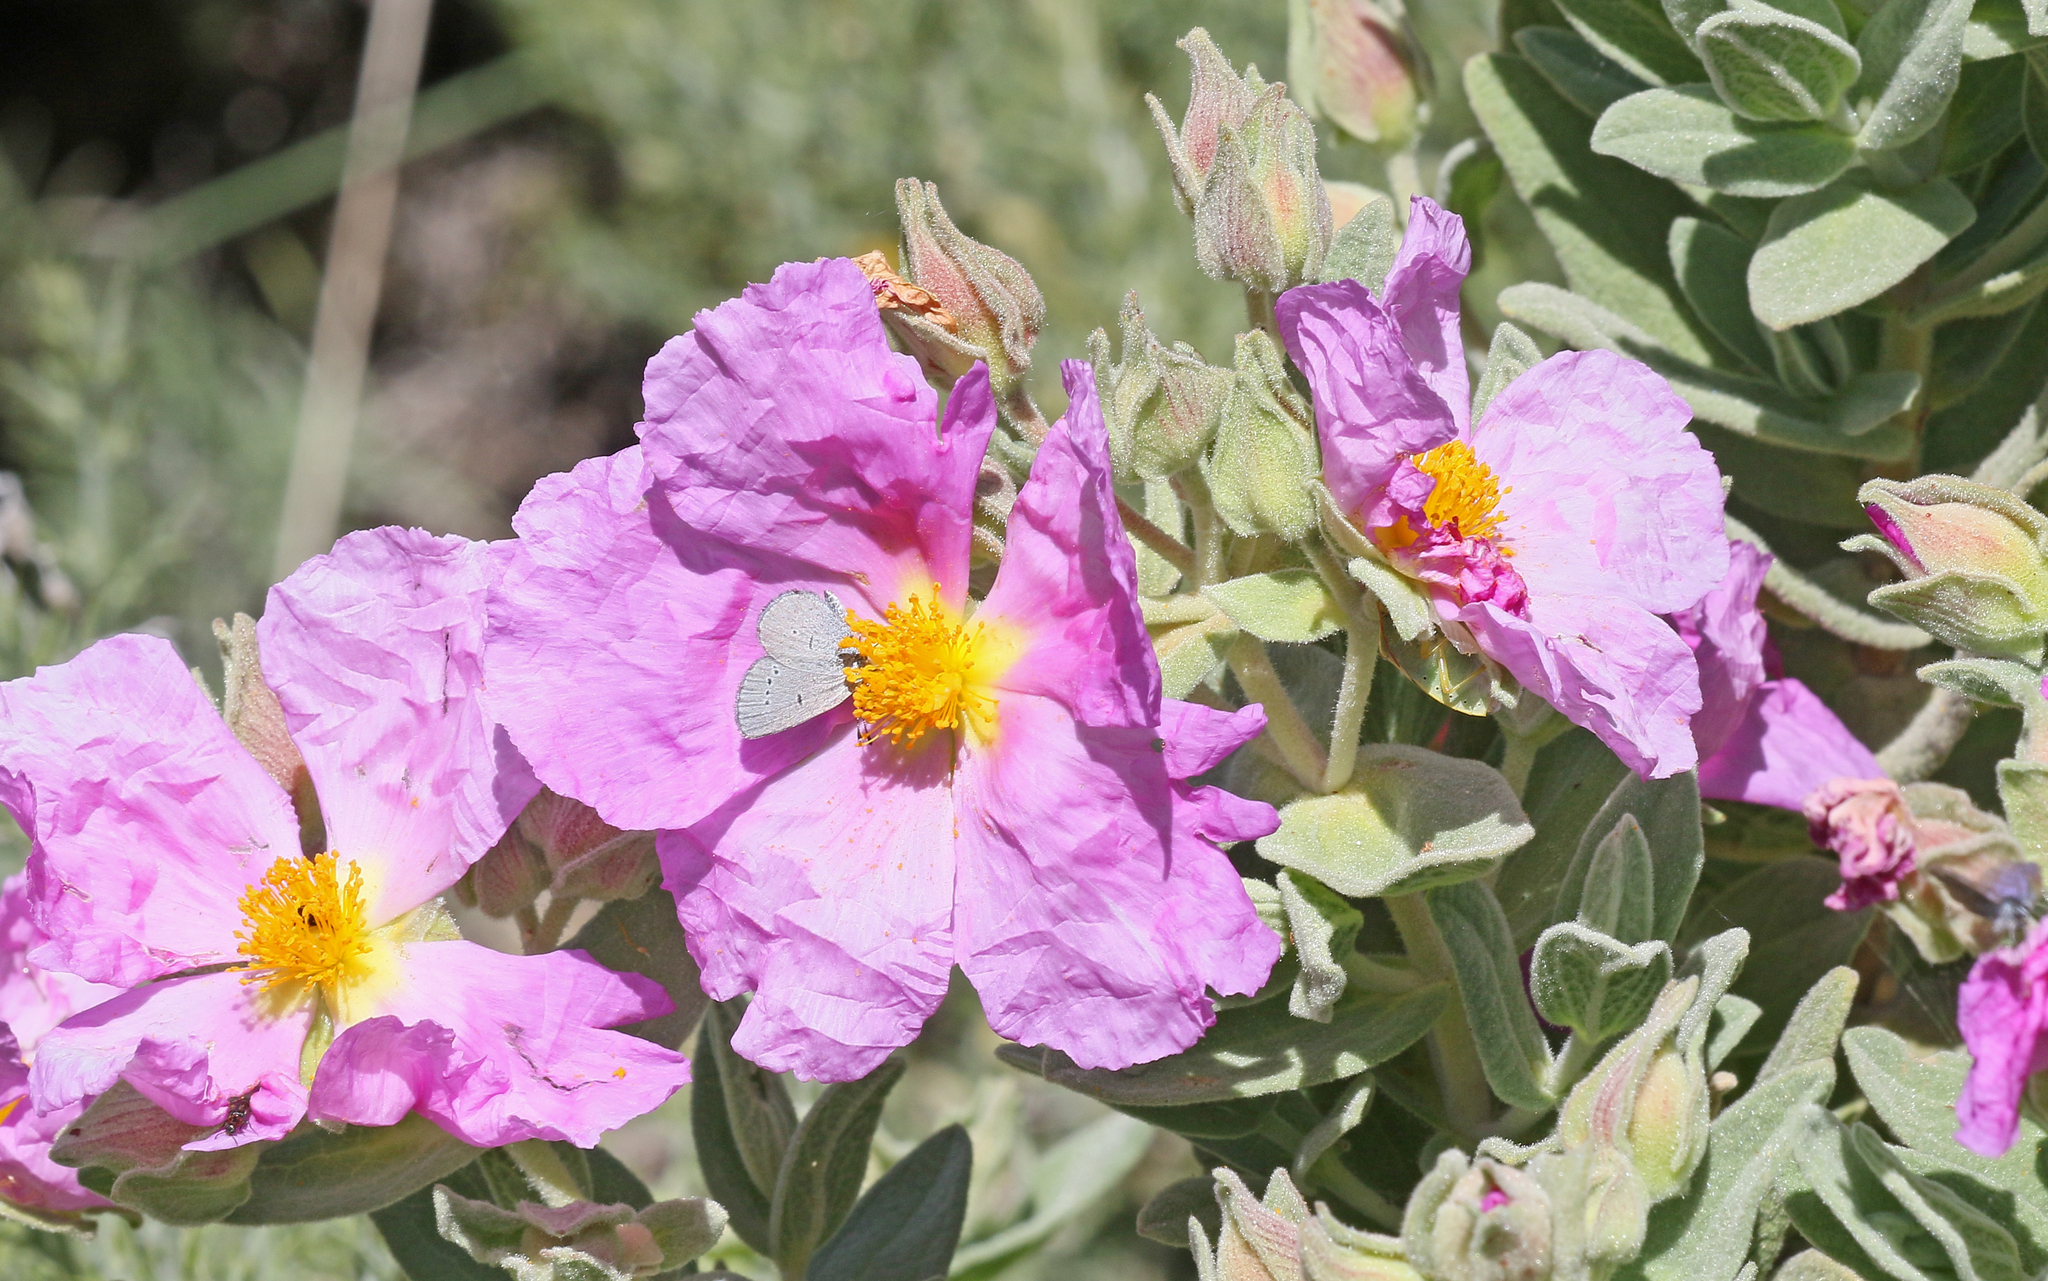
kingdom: Animalia
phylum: Arthropoda
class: Insecta
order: Lepidoptera
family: Lycaenidae
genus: Cupido
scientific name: Cupido lorquinii
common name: Lorquin’s blue
